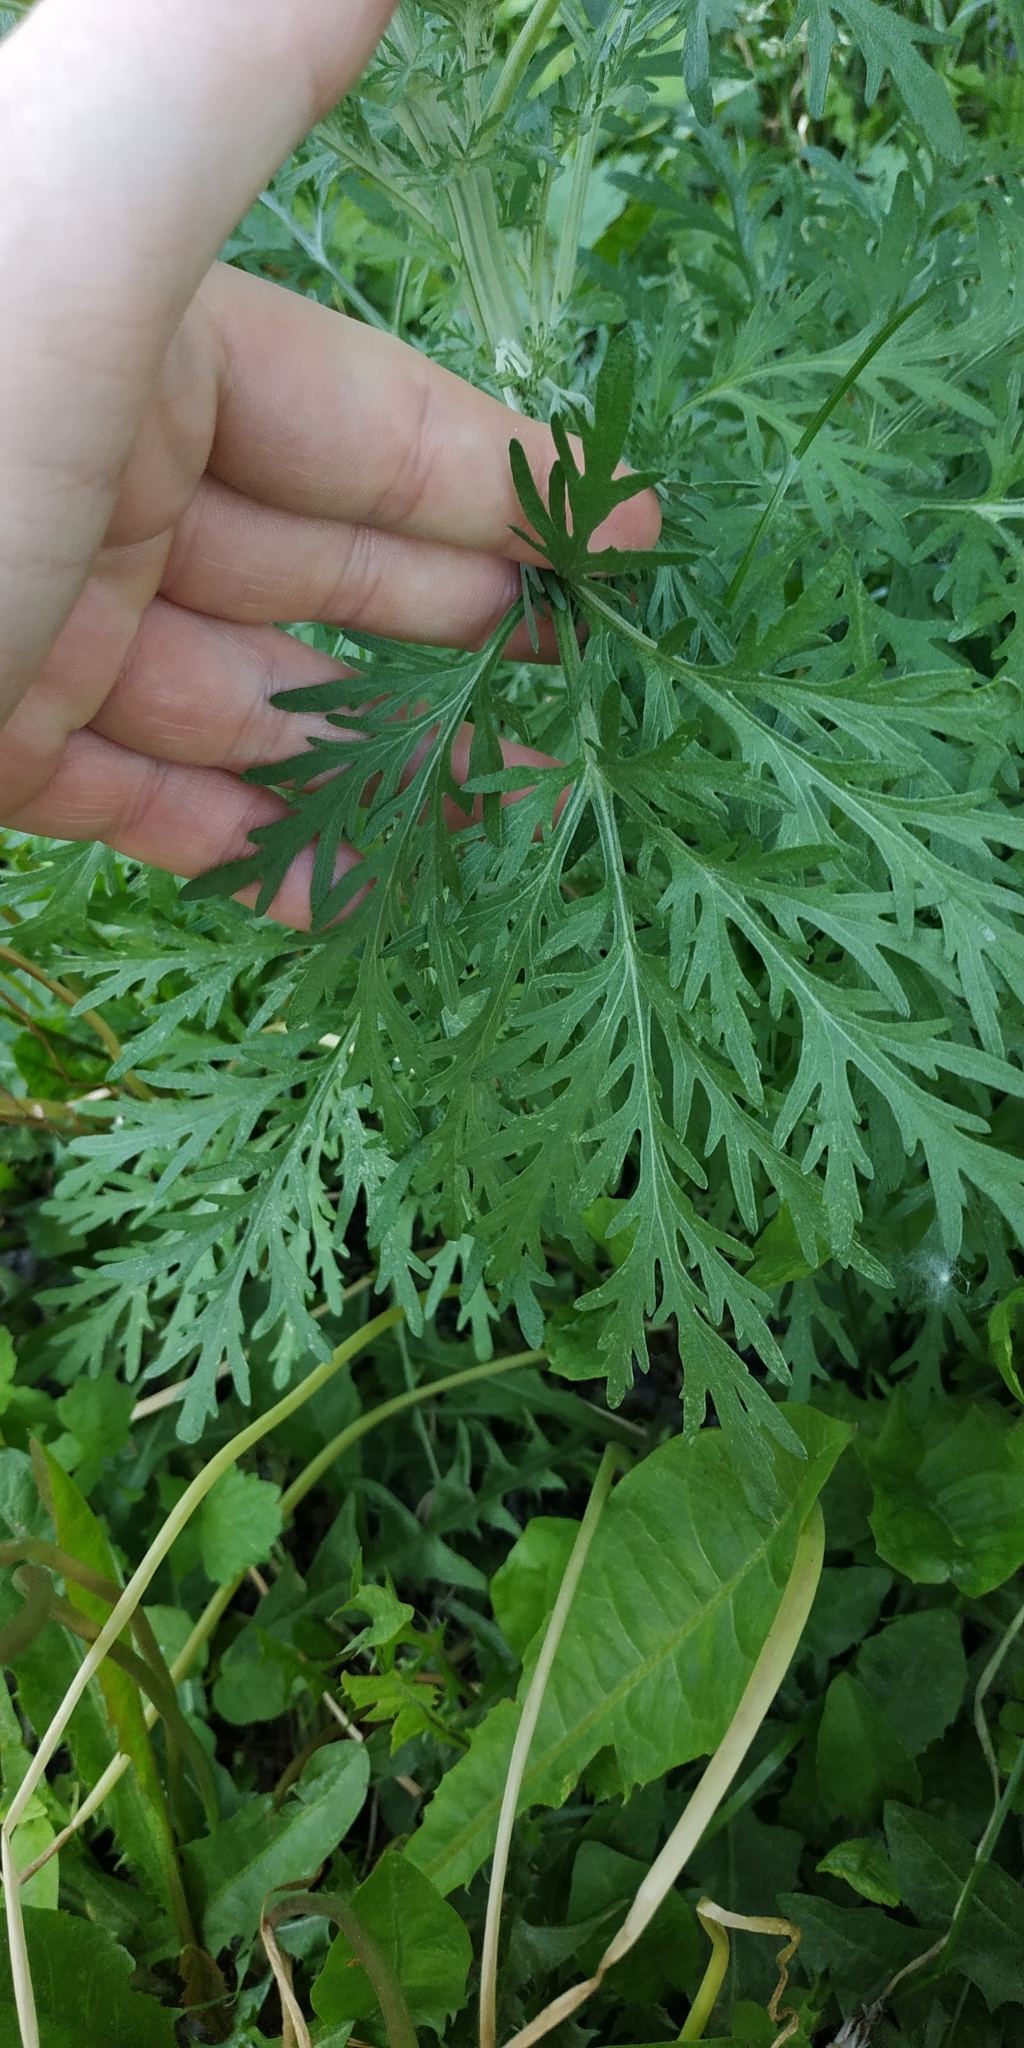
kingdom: Plantae
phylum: Tracheophyta
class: Magnoliopsida
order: Asterales
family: Asteraceae
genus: Artemisia
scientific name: Artemisia sieversiana
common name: Sieversian wormwood
